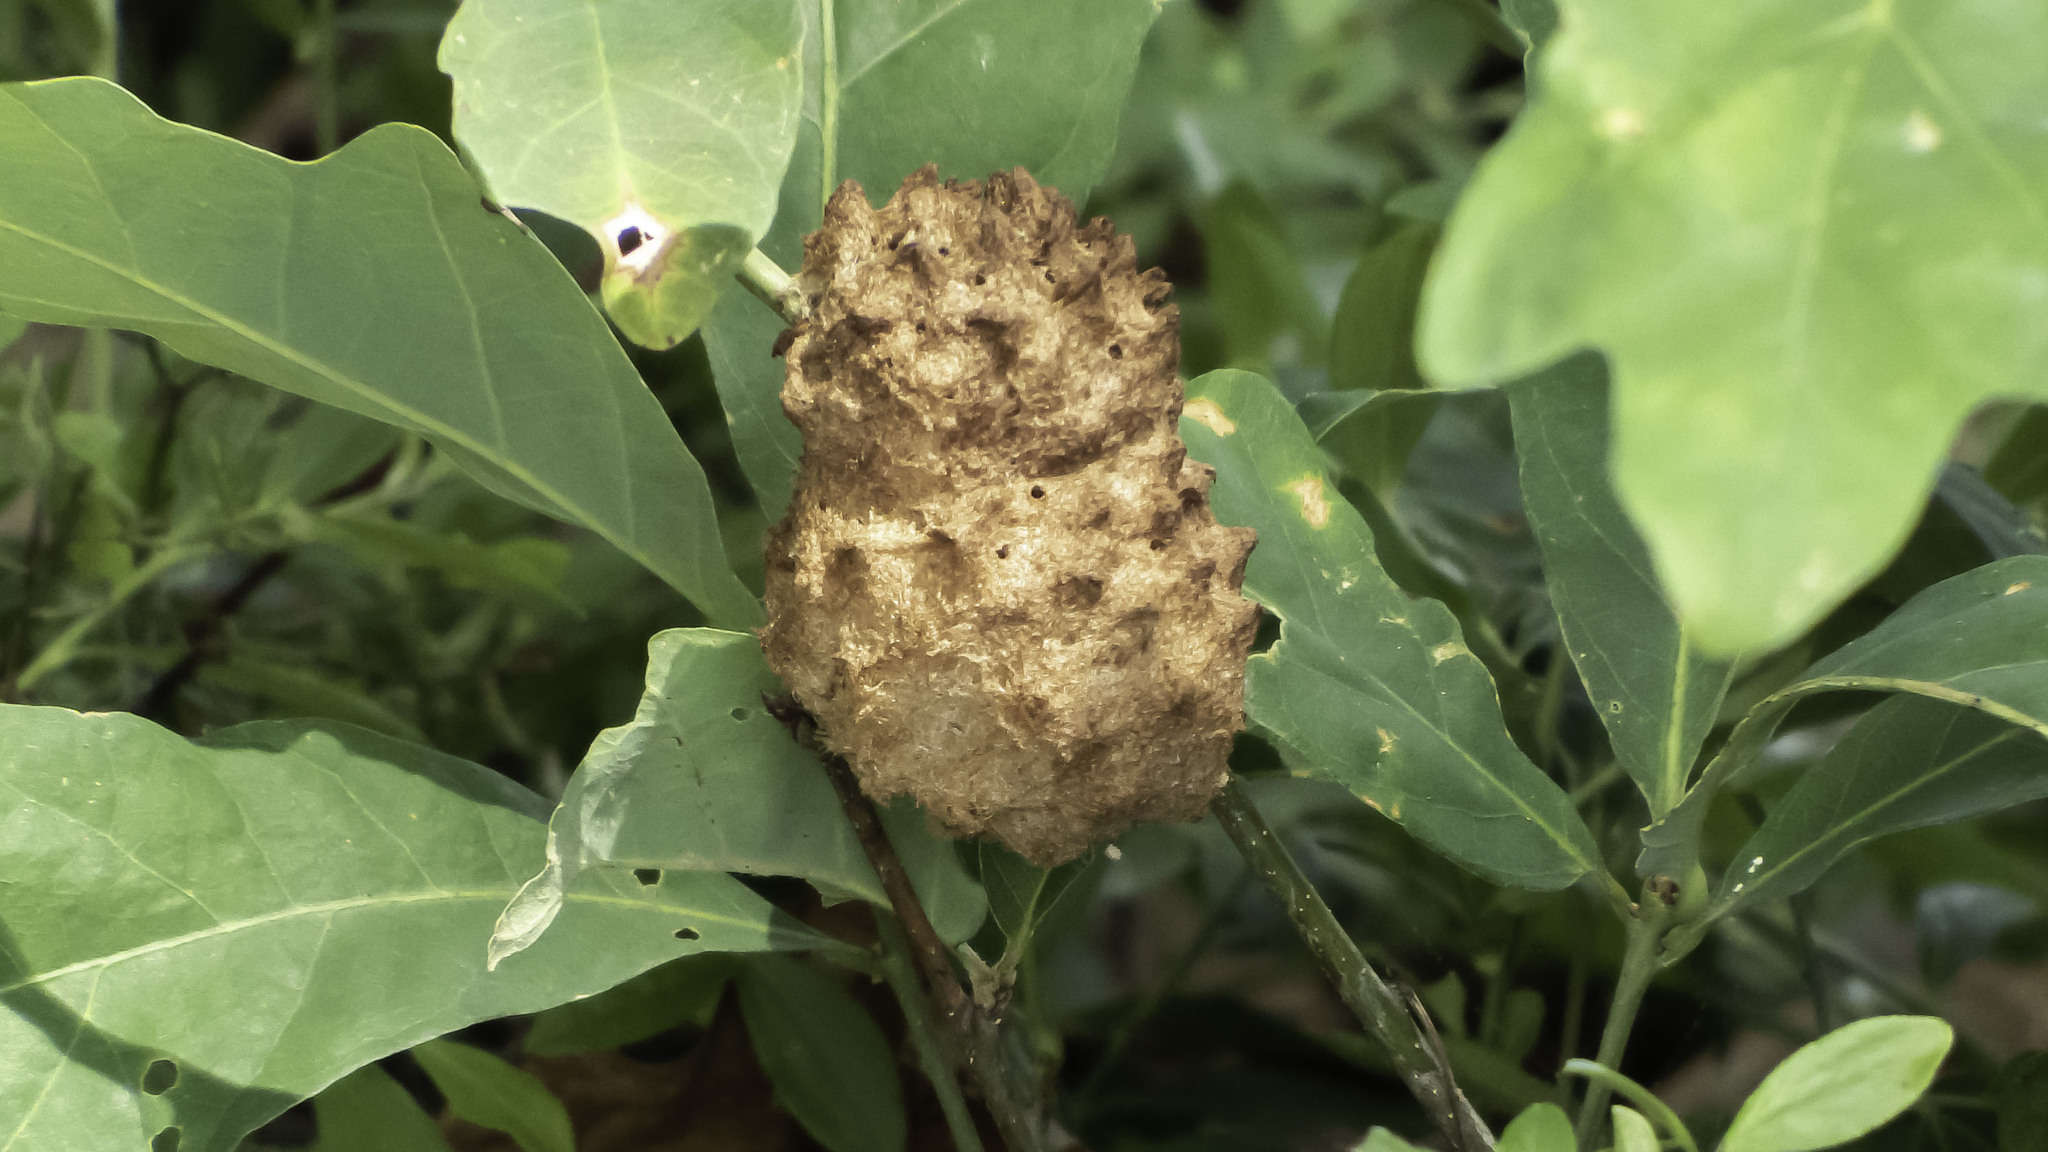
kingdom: Animalia
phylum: Arthropoda
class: Insecta
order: Hymenoptera
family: Cynipidae
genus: Callirhytis
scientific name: Callirhytis
